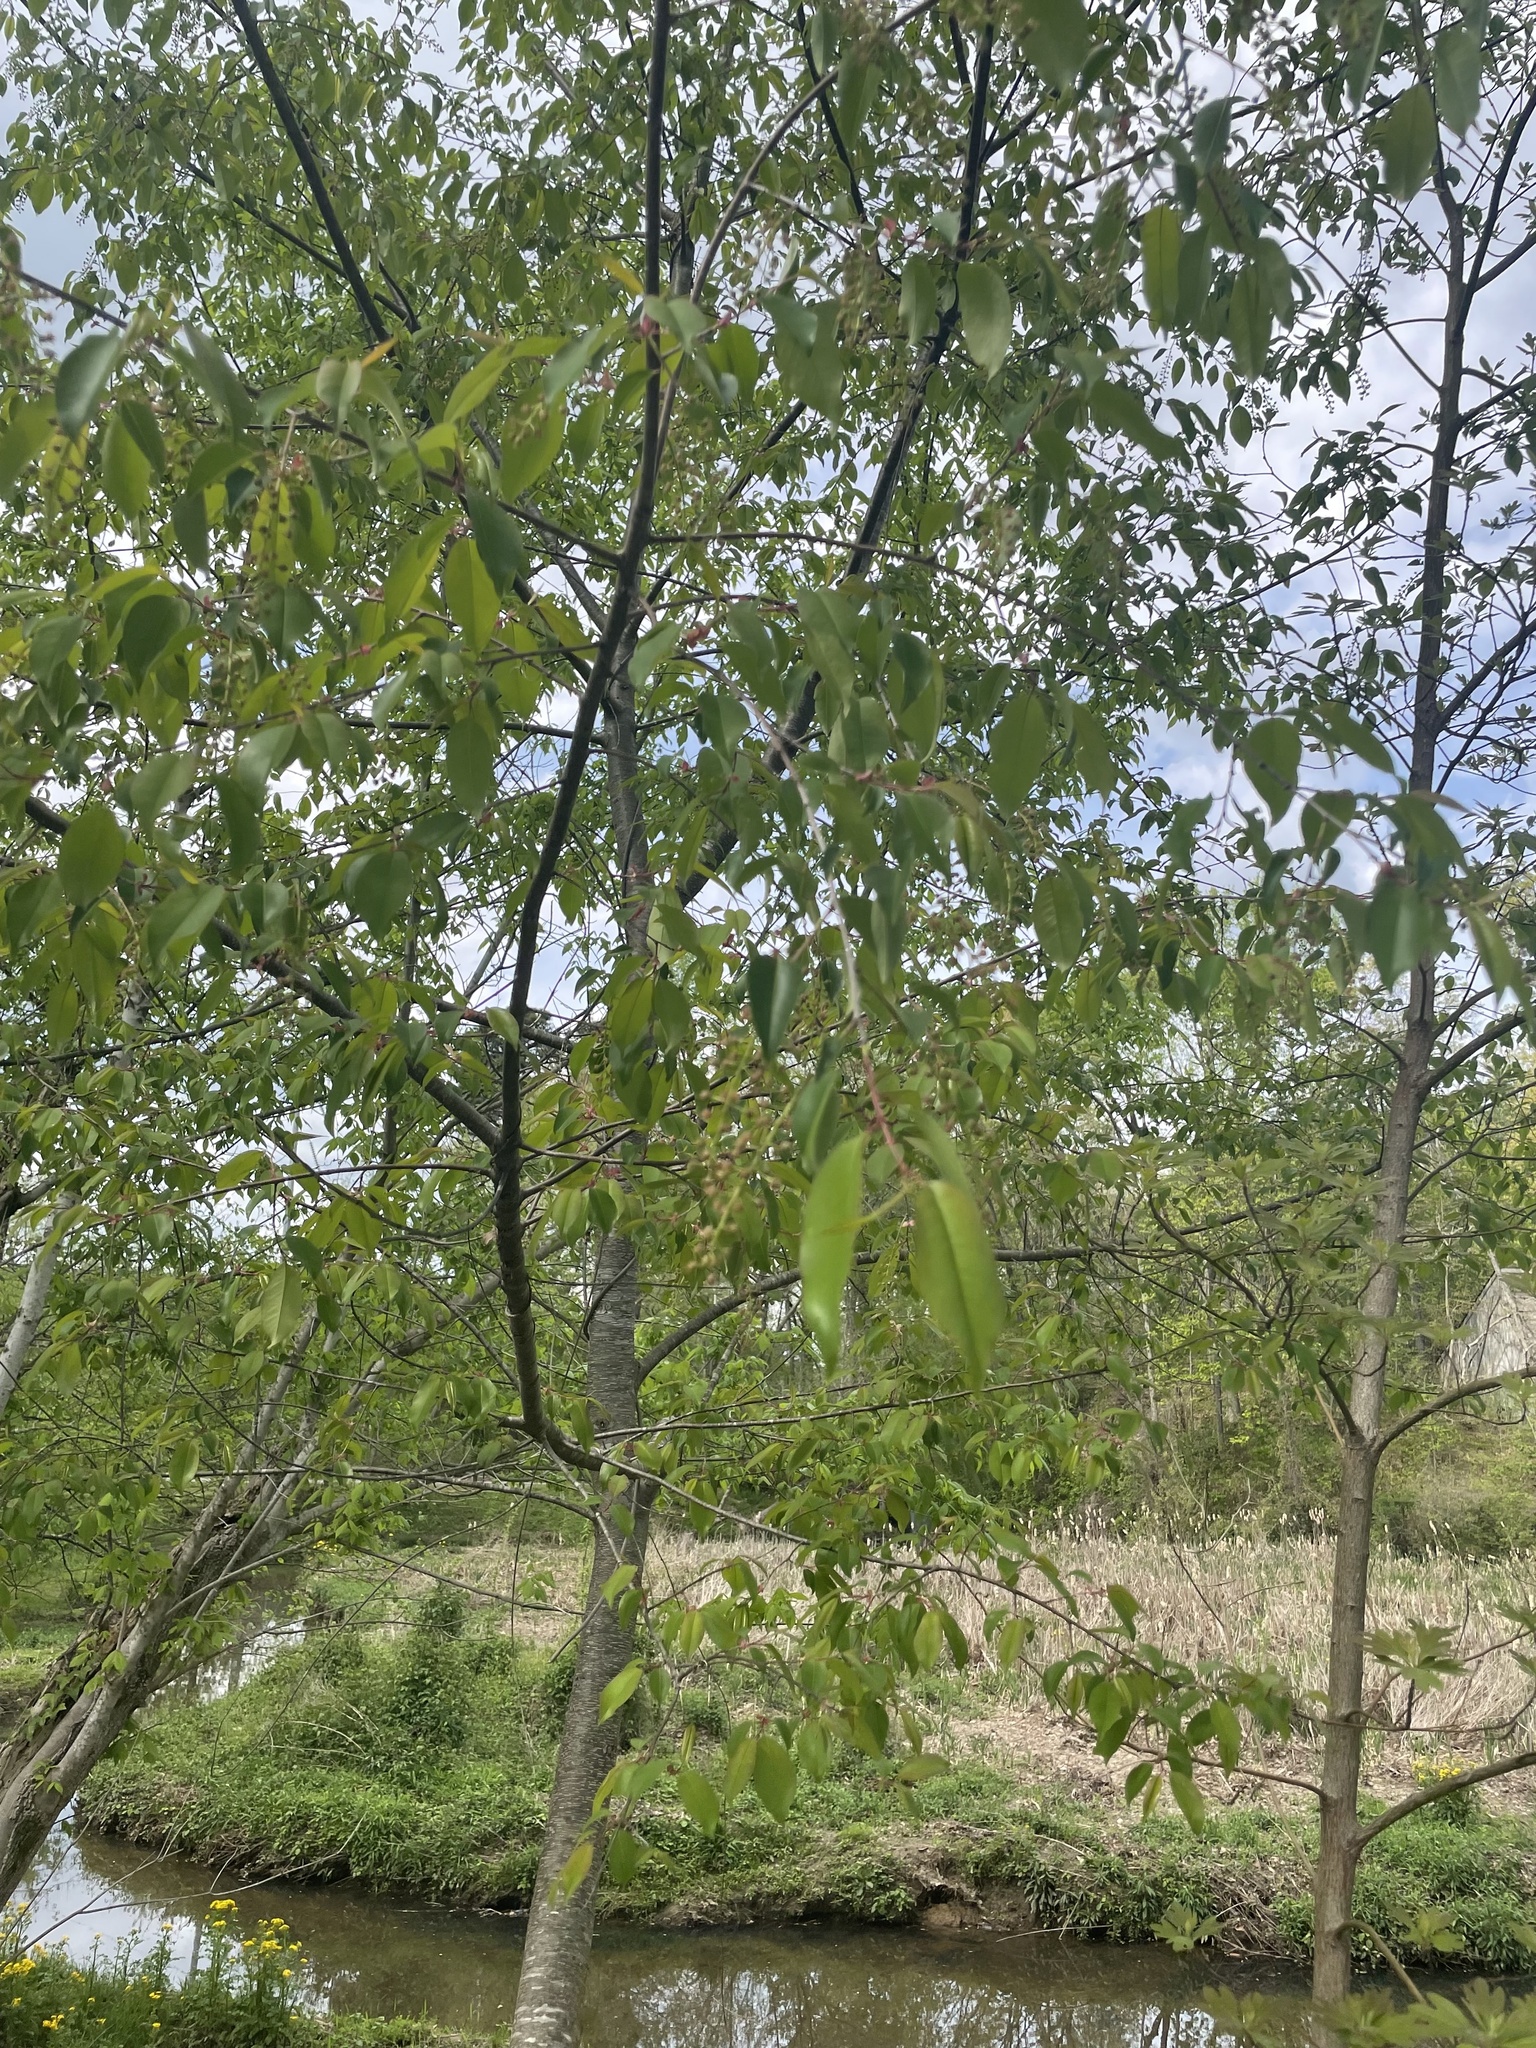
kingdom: Plantae
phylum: Tracheophyta
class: Magnoliopsida
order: Rosales
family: Rosaceae
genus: Prunus
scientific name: Prunus serotina
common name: Black cherry
